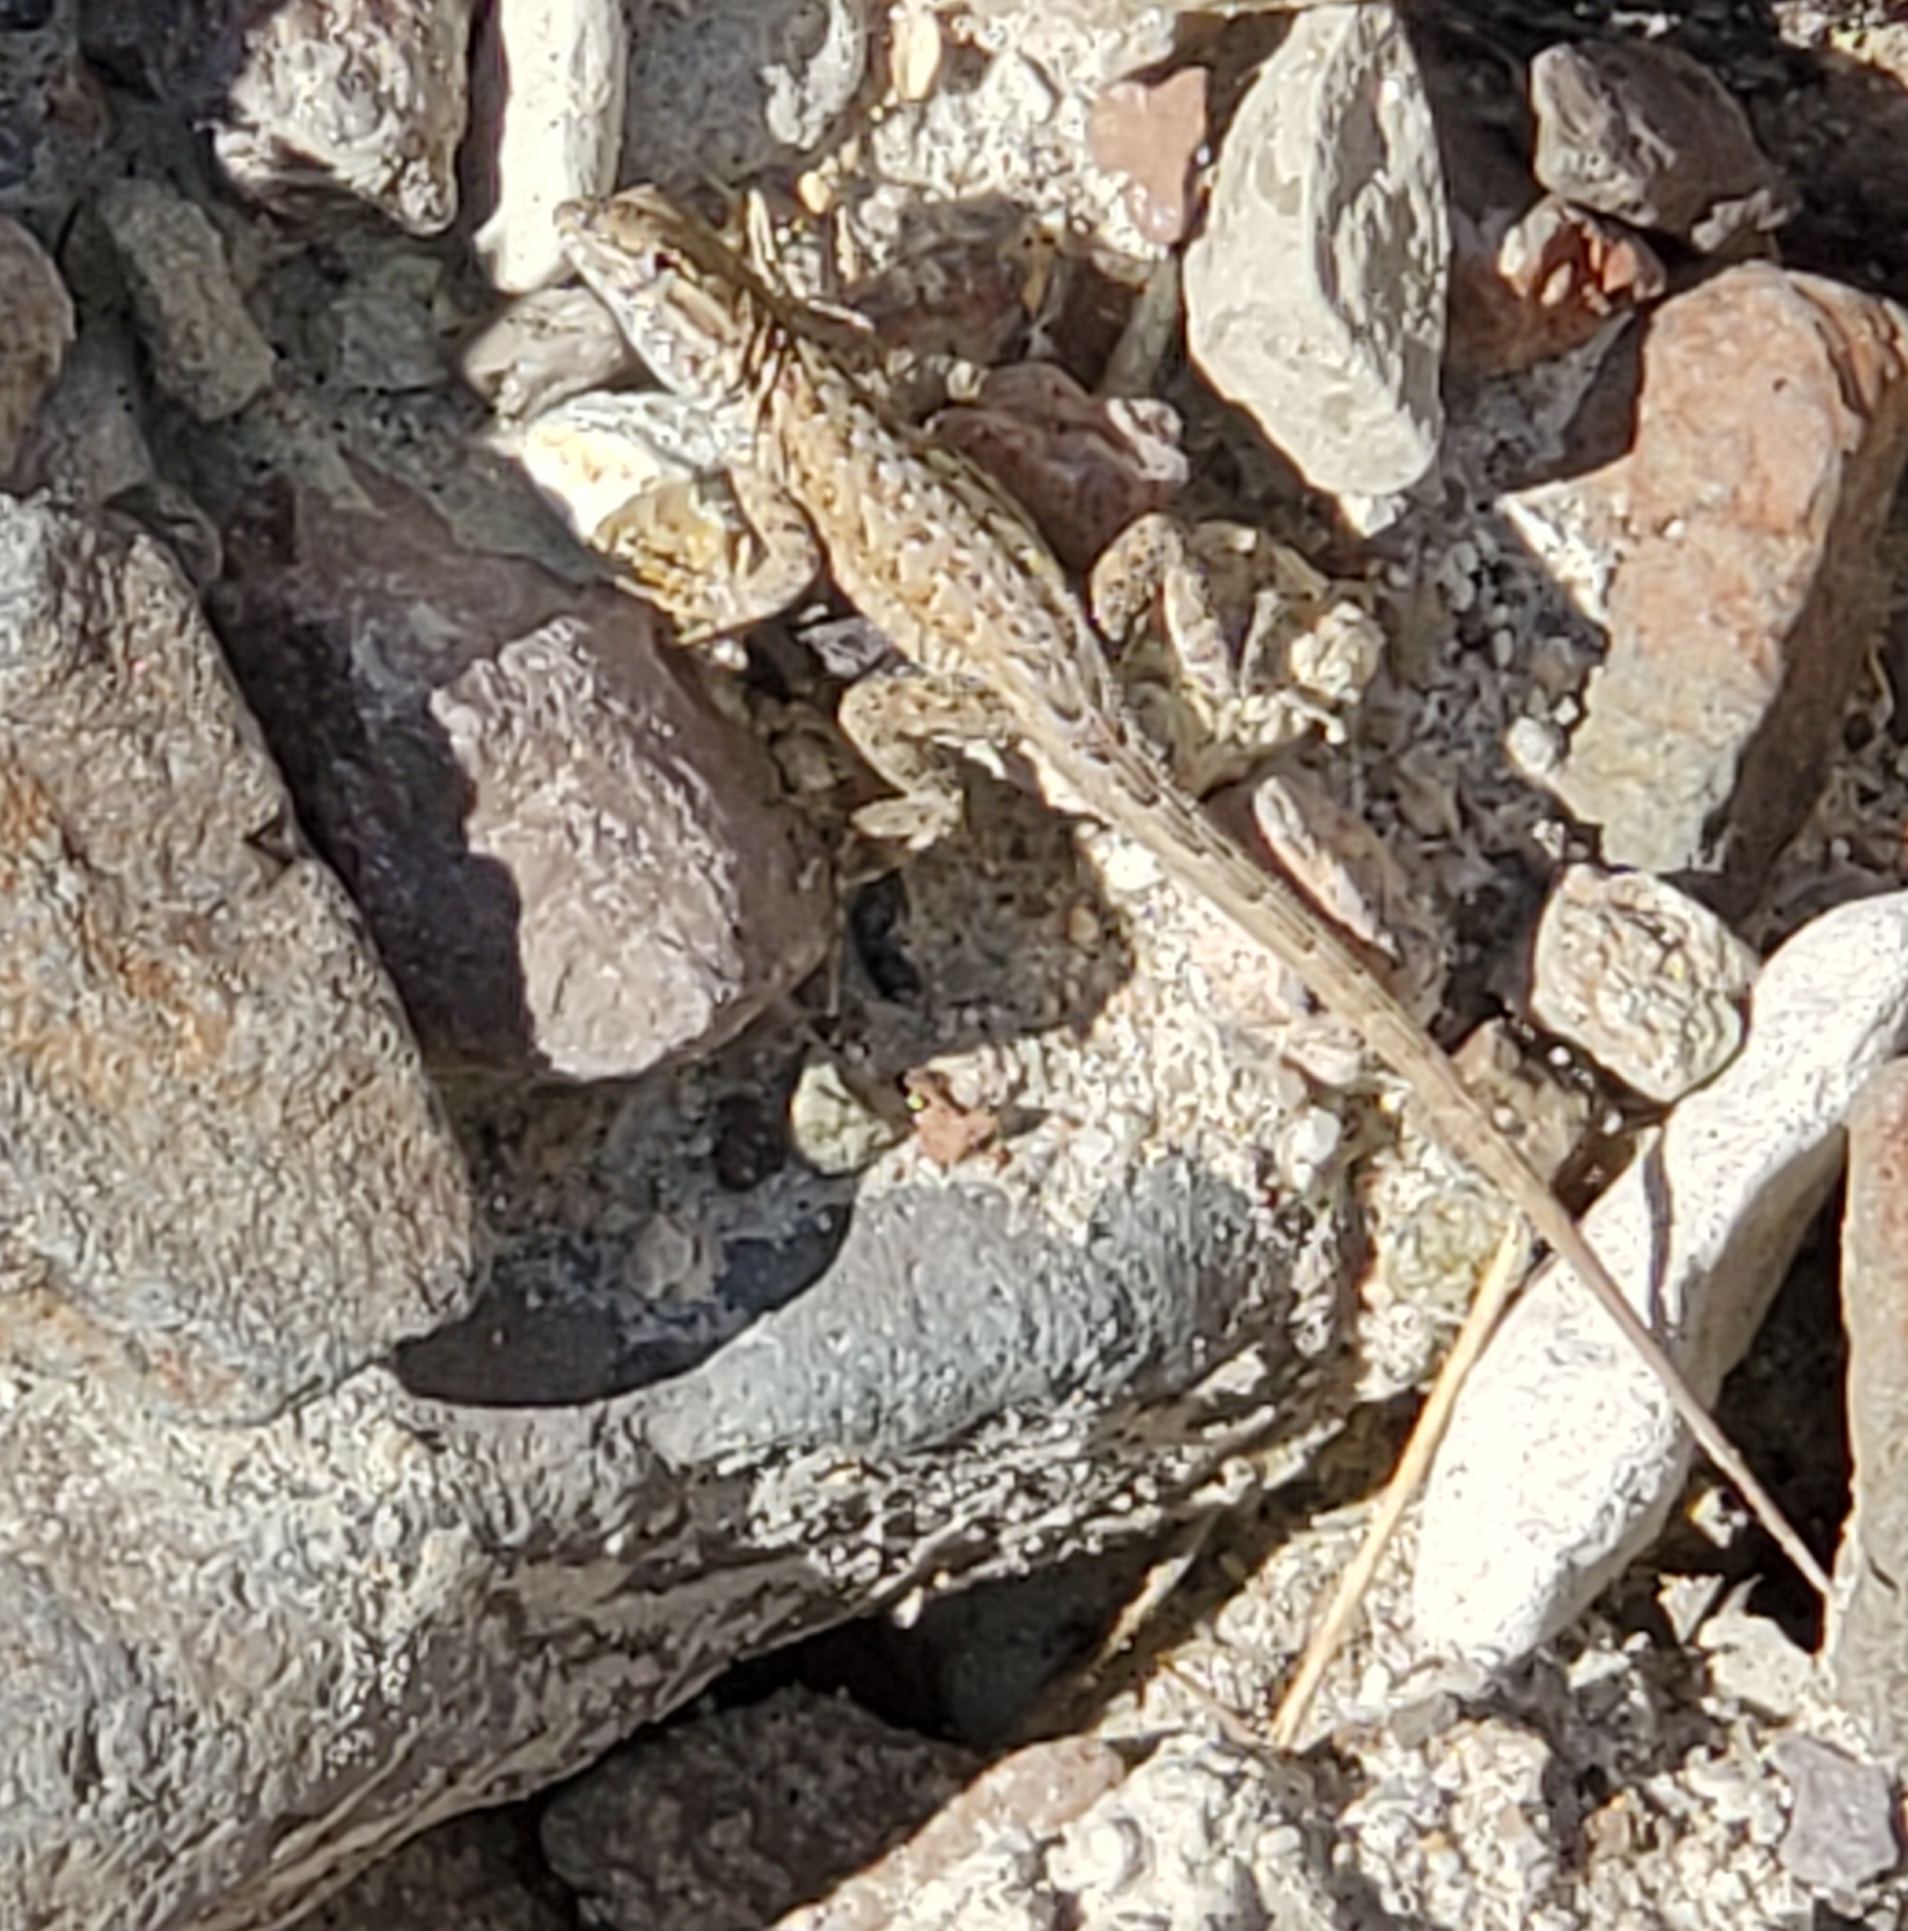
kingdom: Animalia
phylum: Chordata
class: Squamata
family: Phrynosomatidae
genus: Uta
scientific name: Uta stansburiana
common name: Side-blotched lizard
